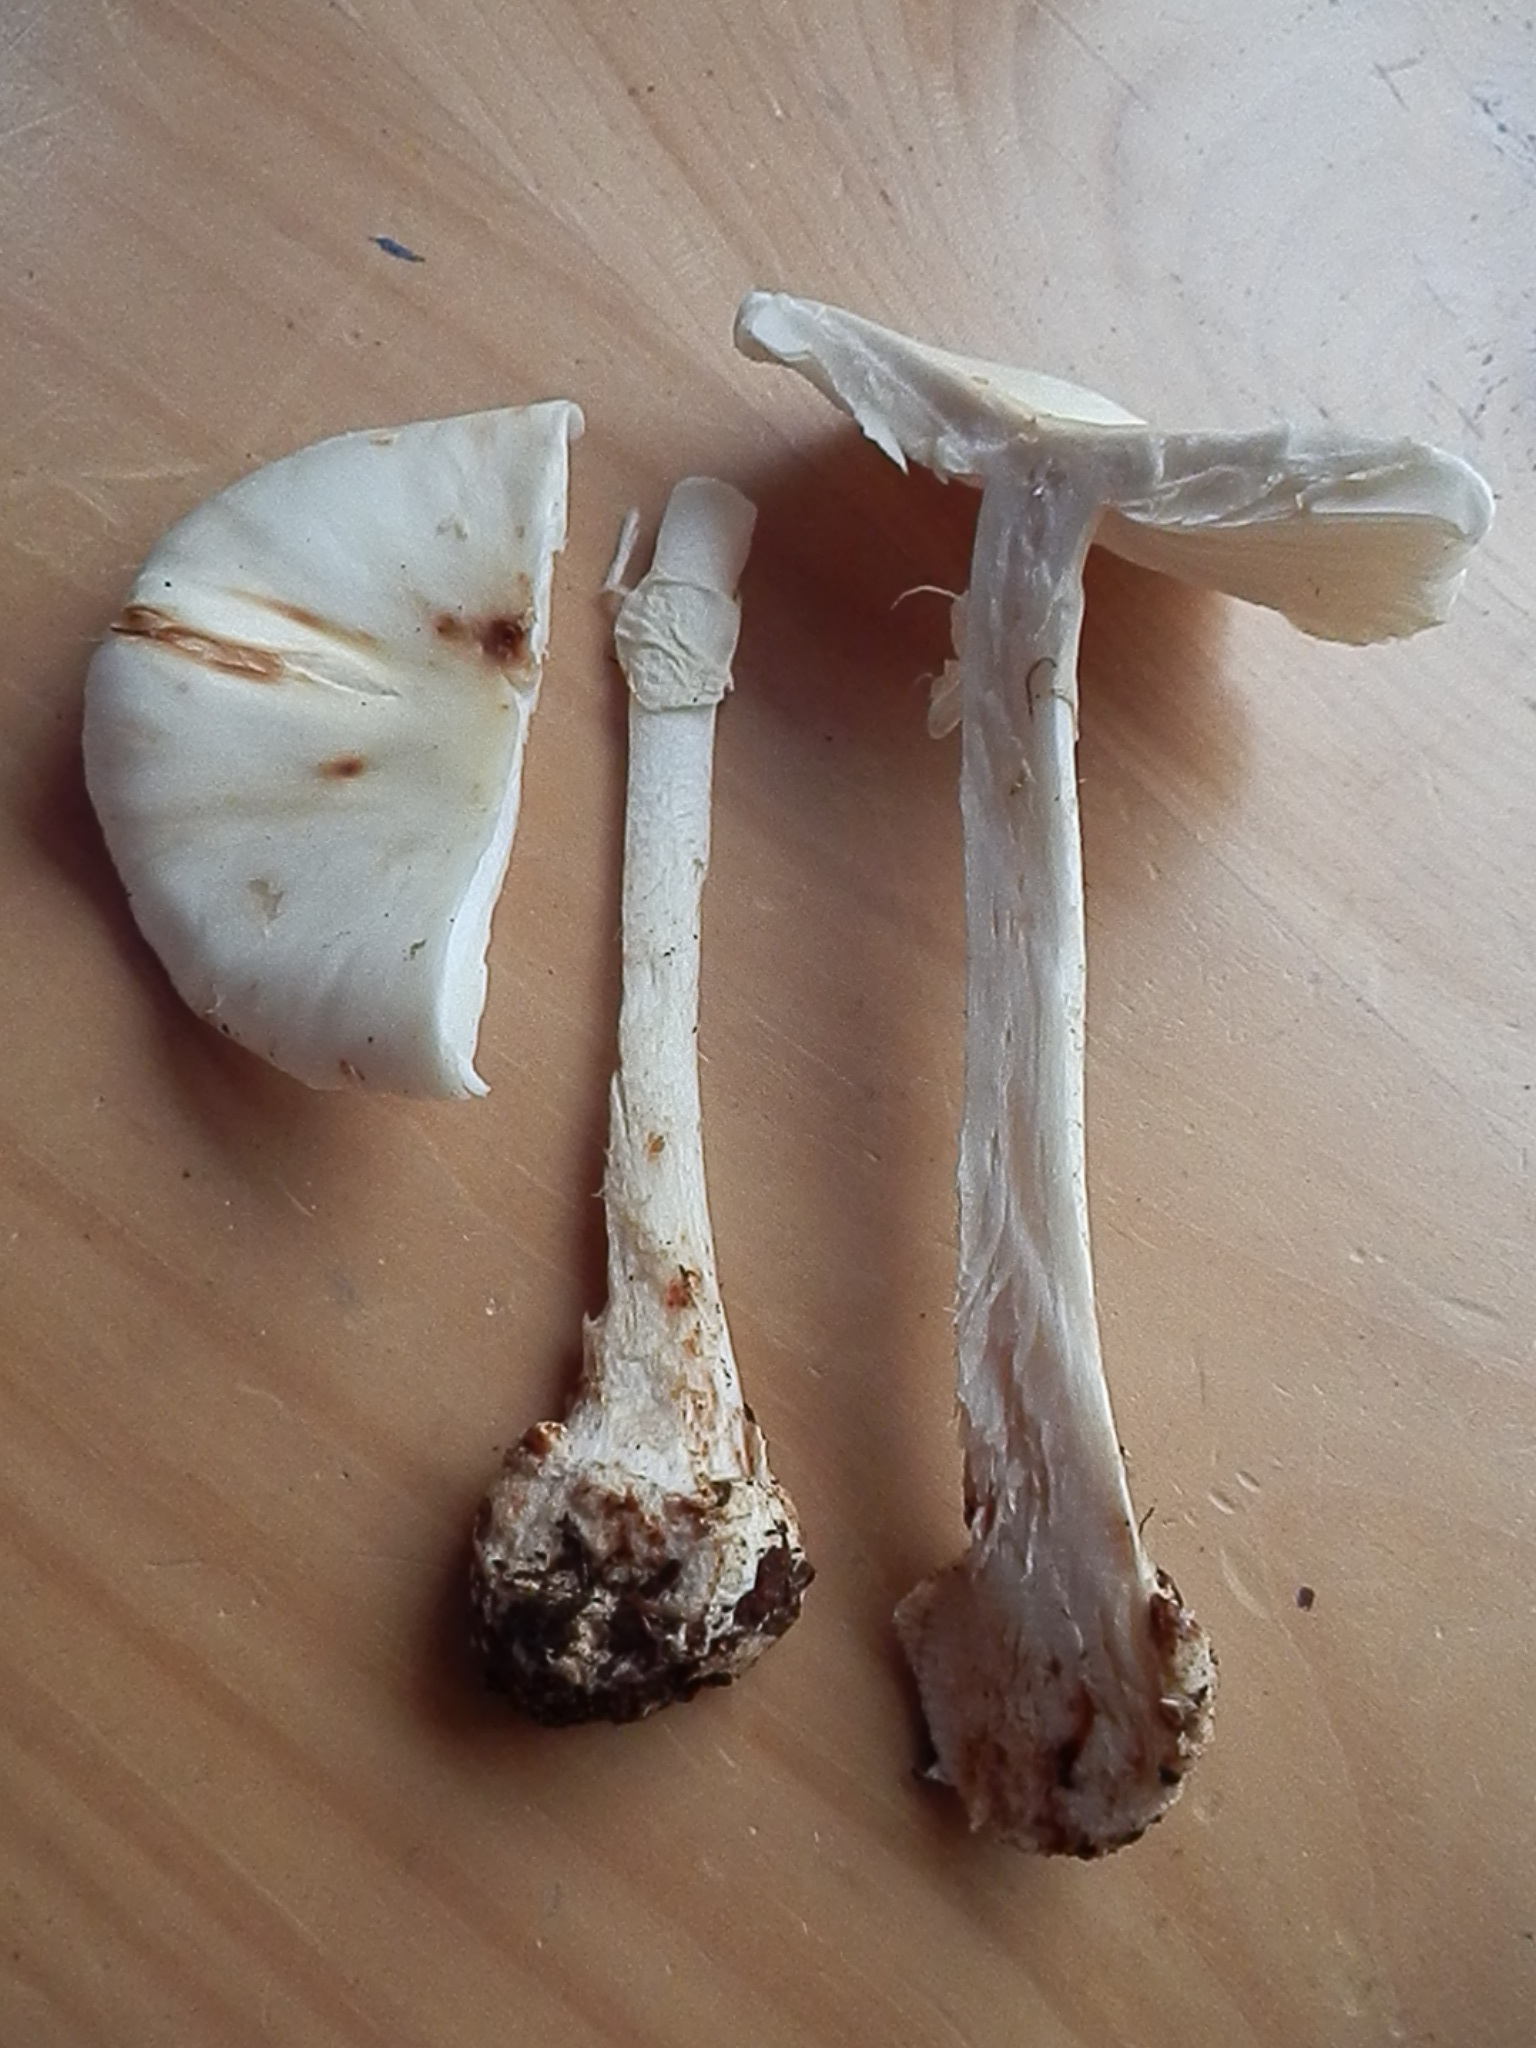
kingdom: Fungi
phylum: Basidiomycota
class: Agaricomycetes
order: Agaricales
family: Amanitaceae
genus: Amanita
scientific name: Amanita brunnescens
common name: Brown american star-footed amanita
